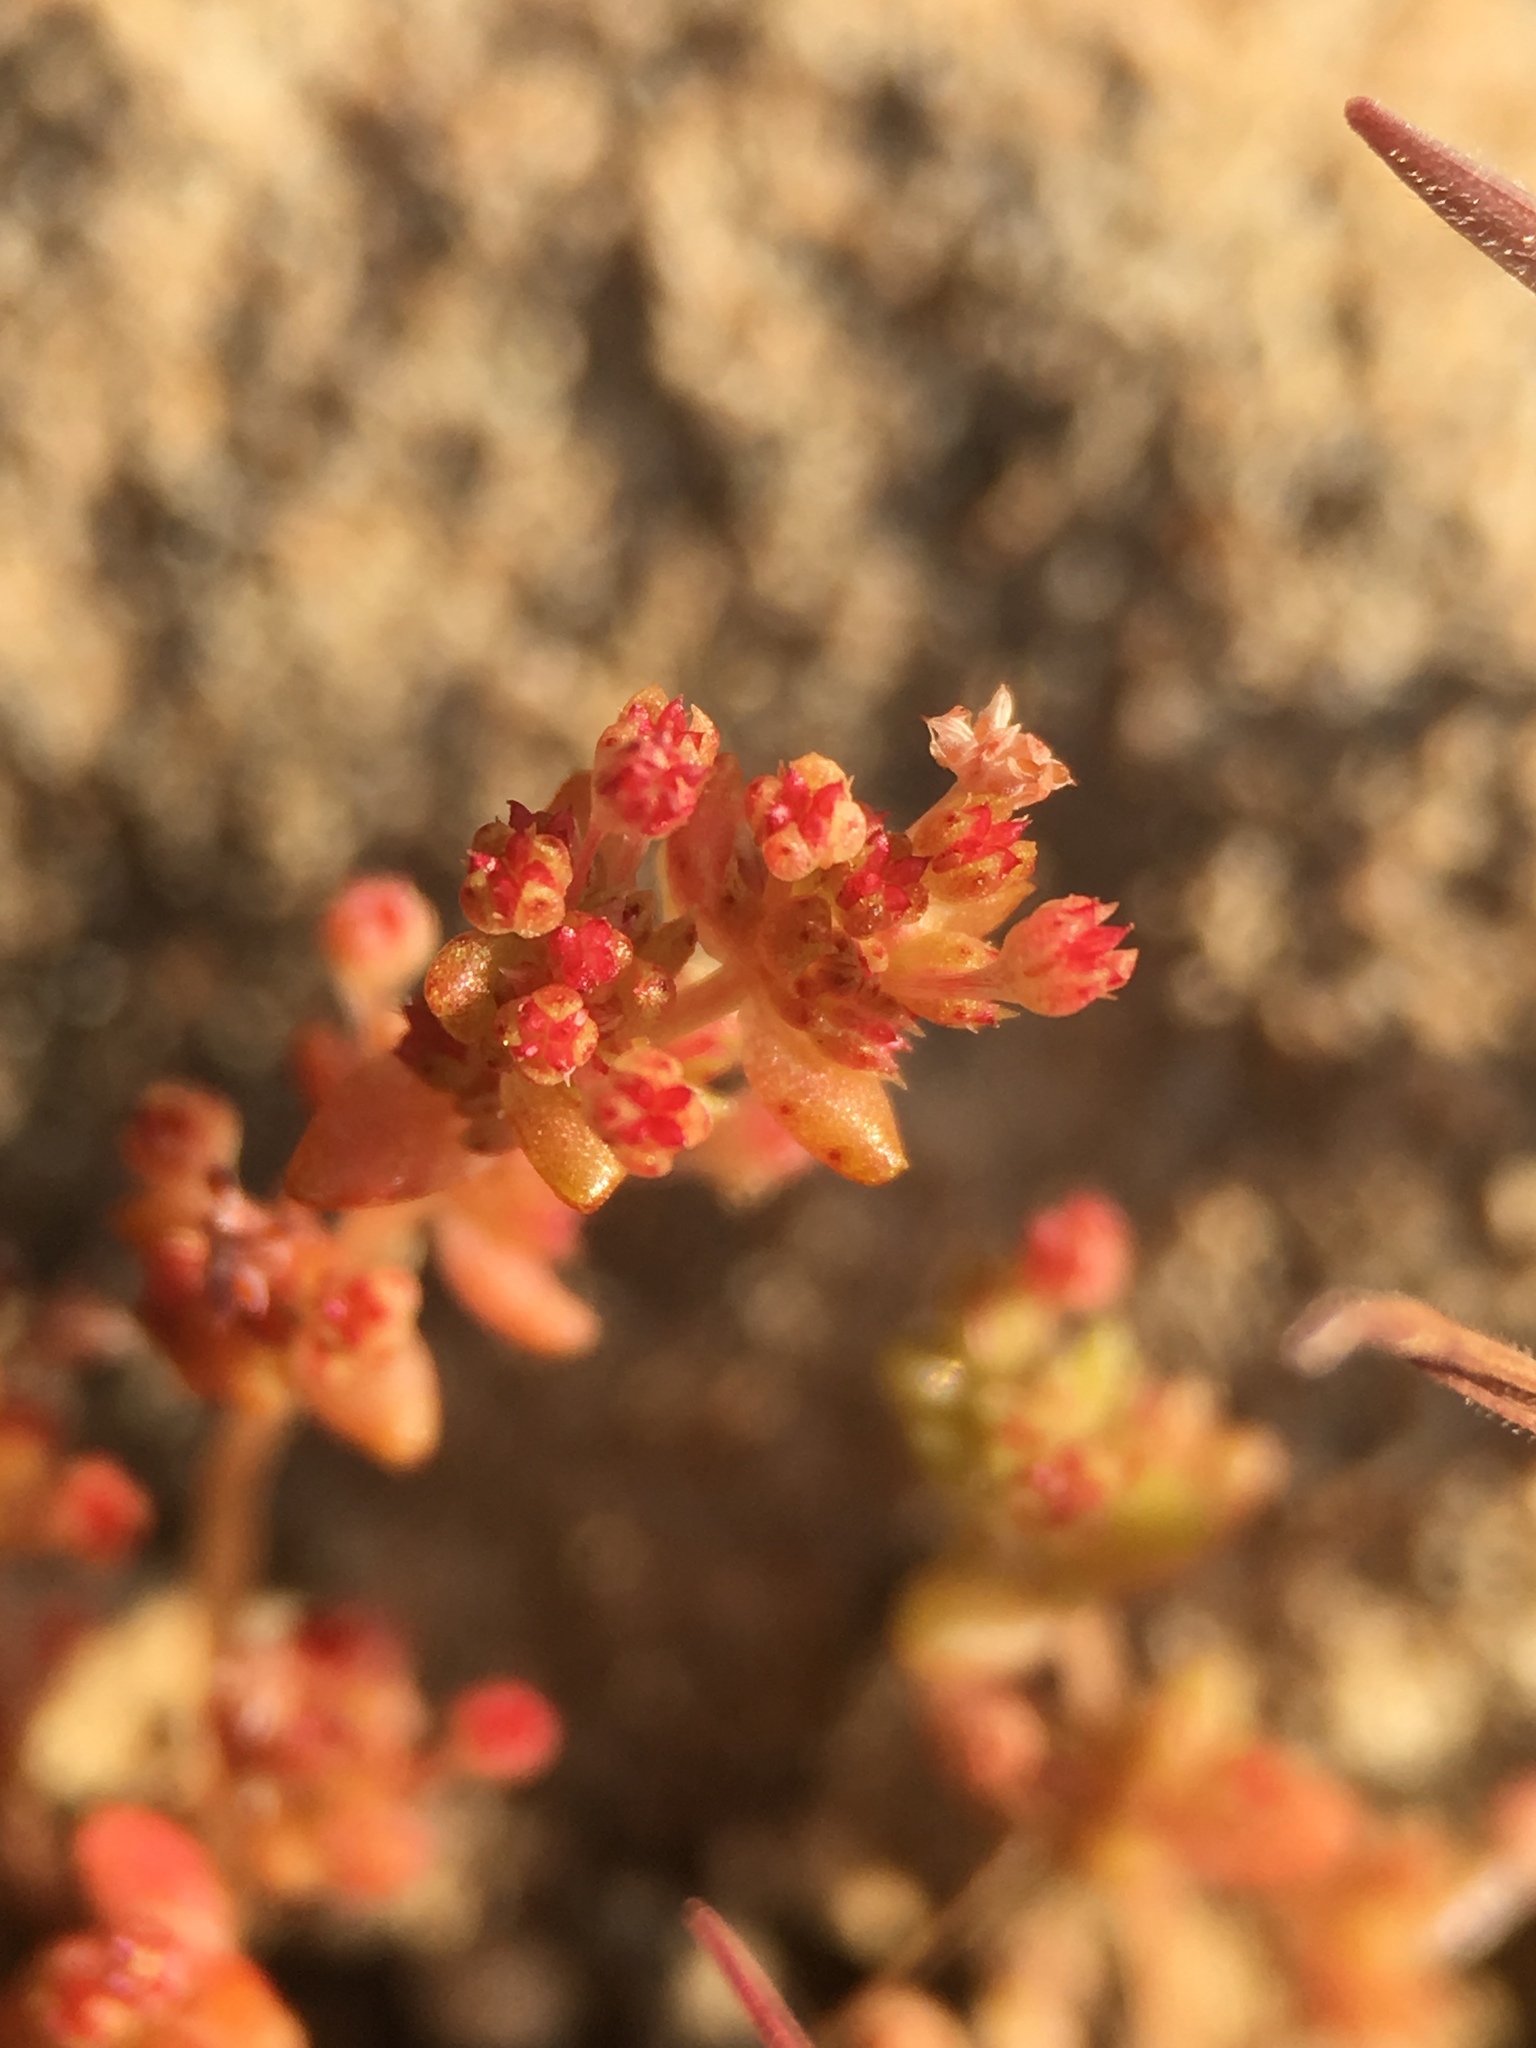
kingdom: Plantae
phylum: Tracheophyta
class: Magnoliopsida
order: Saxifragales
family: Crassulaceae
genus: Crassula
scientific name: Crassula connata
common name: Erect pygmyweed
